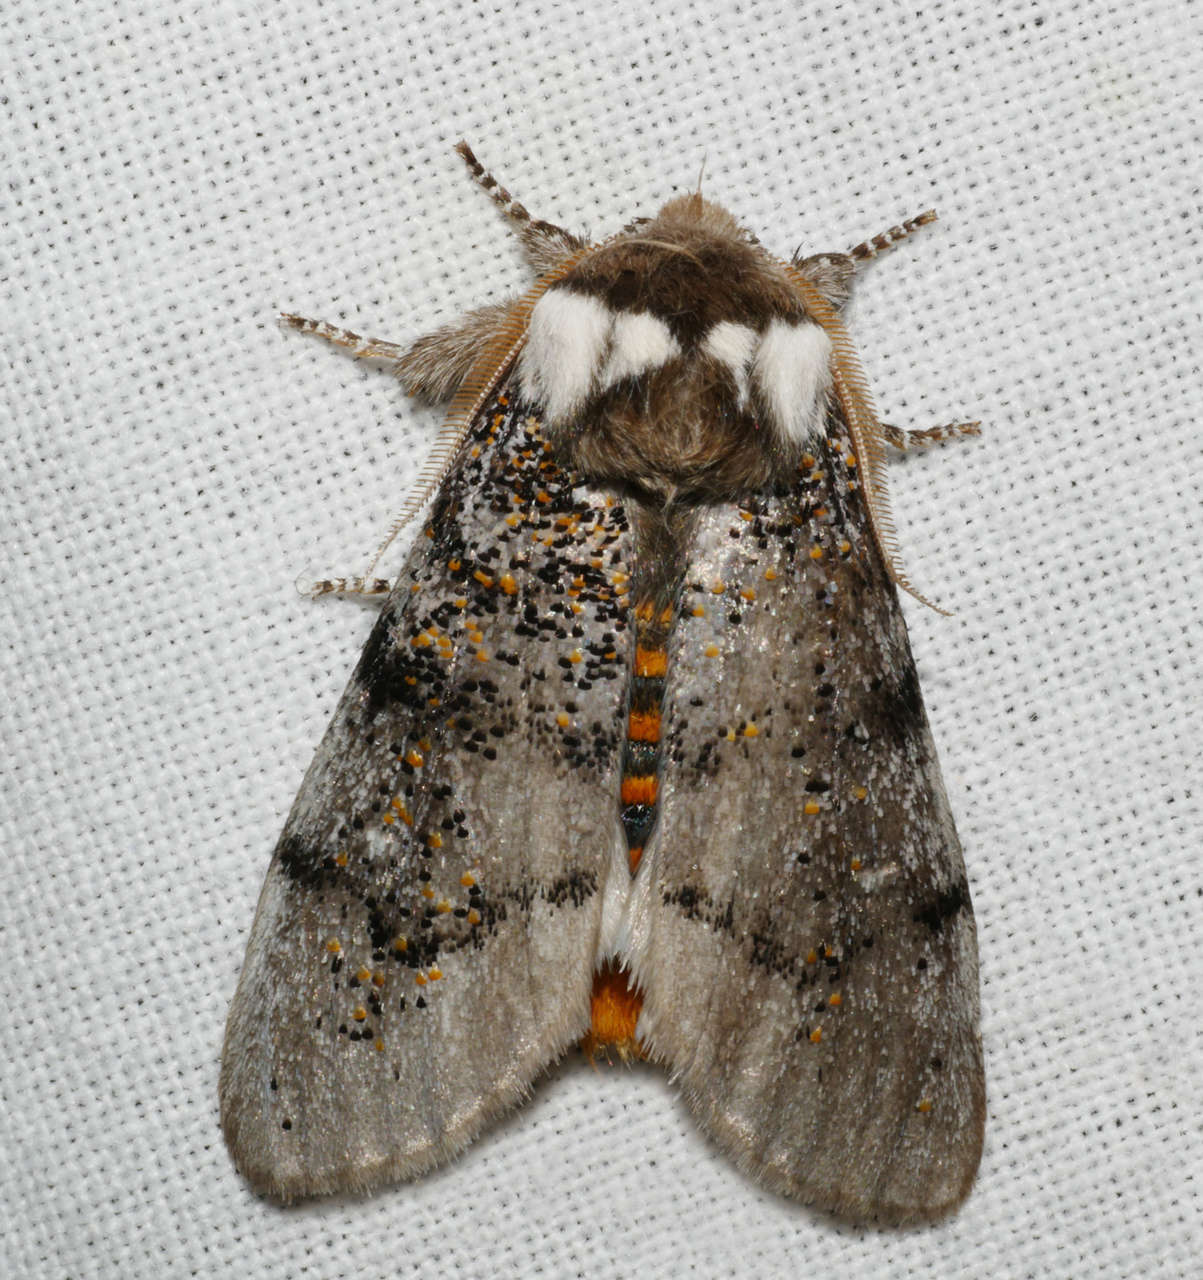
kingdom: Animalia
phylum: Arthropoda
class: Insecta
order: Lepidoptera
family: Oenosandridae
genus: Oenosandra
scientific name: Oenosandra boisduvalii
